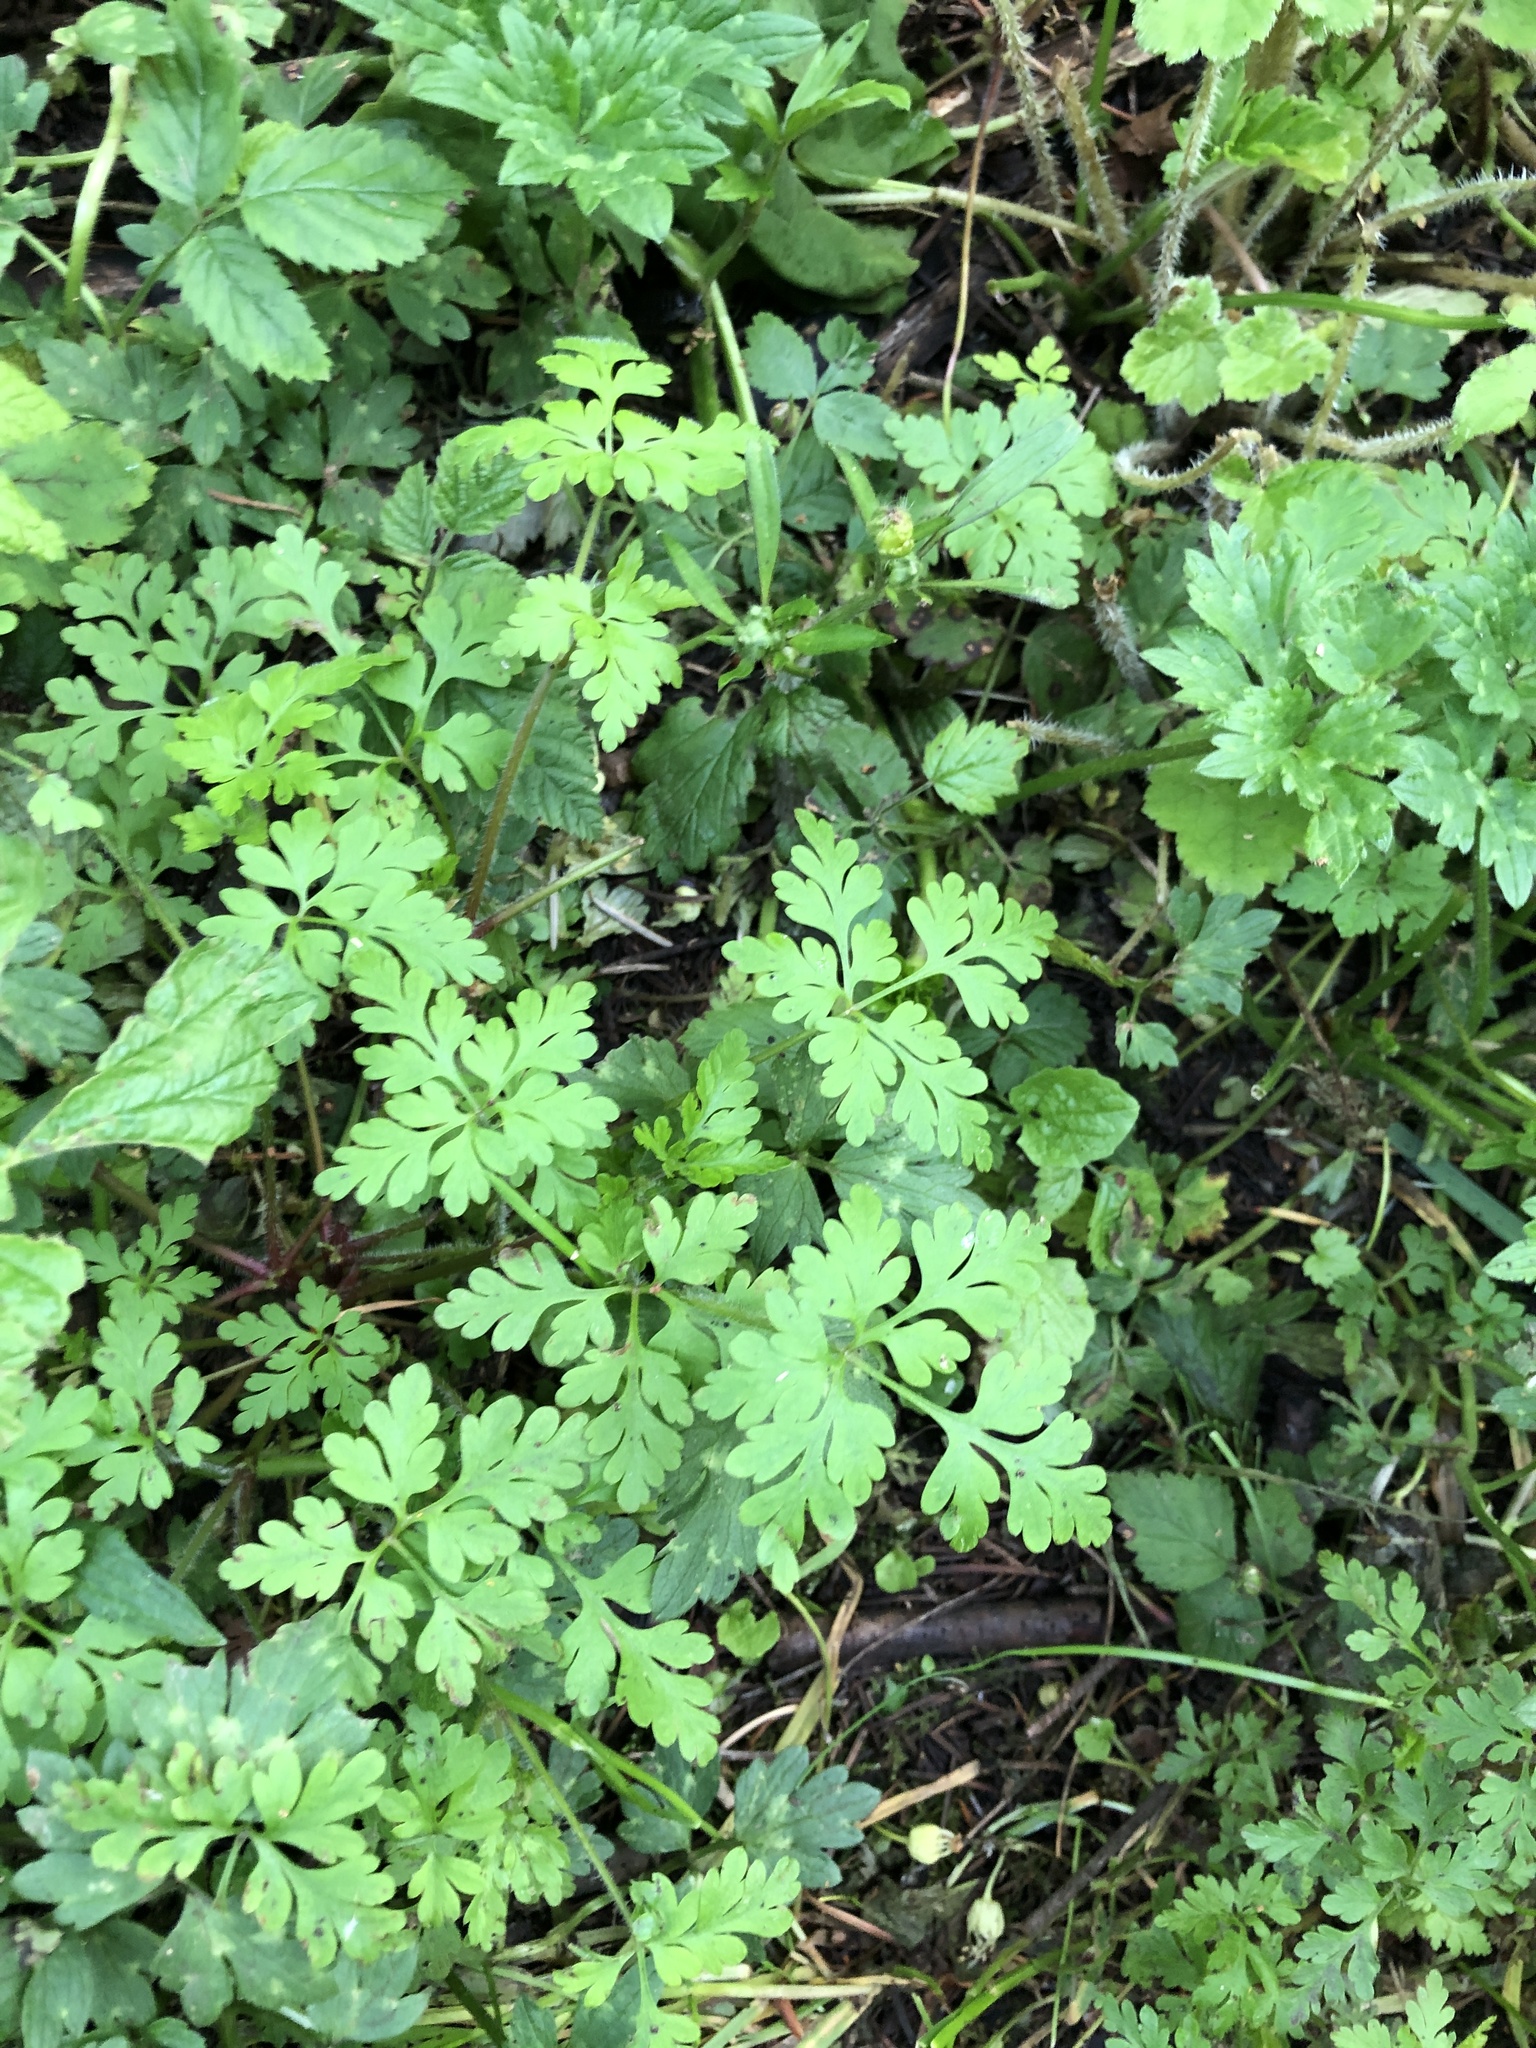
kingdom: Plantae
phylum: Tracheophyta
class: Magnoliopsida
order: Geraniales
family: Geraniaceae
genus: Geranium
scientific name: Geranium robertianum
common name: Herb-robert
